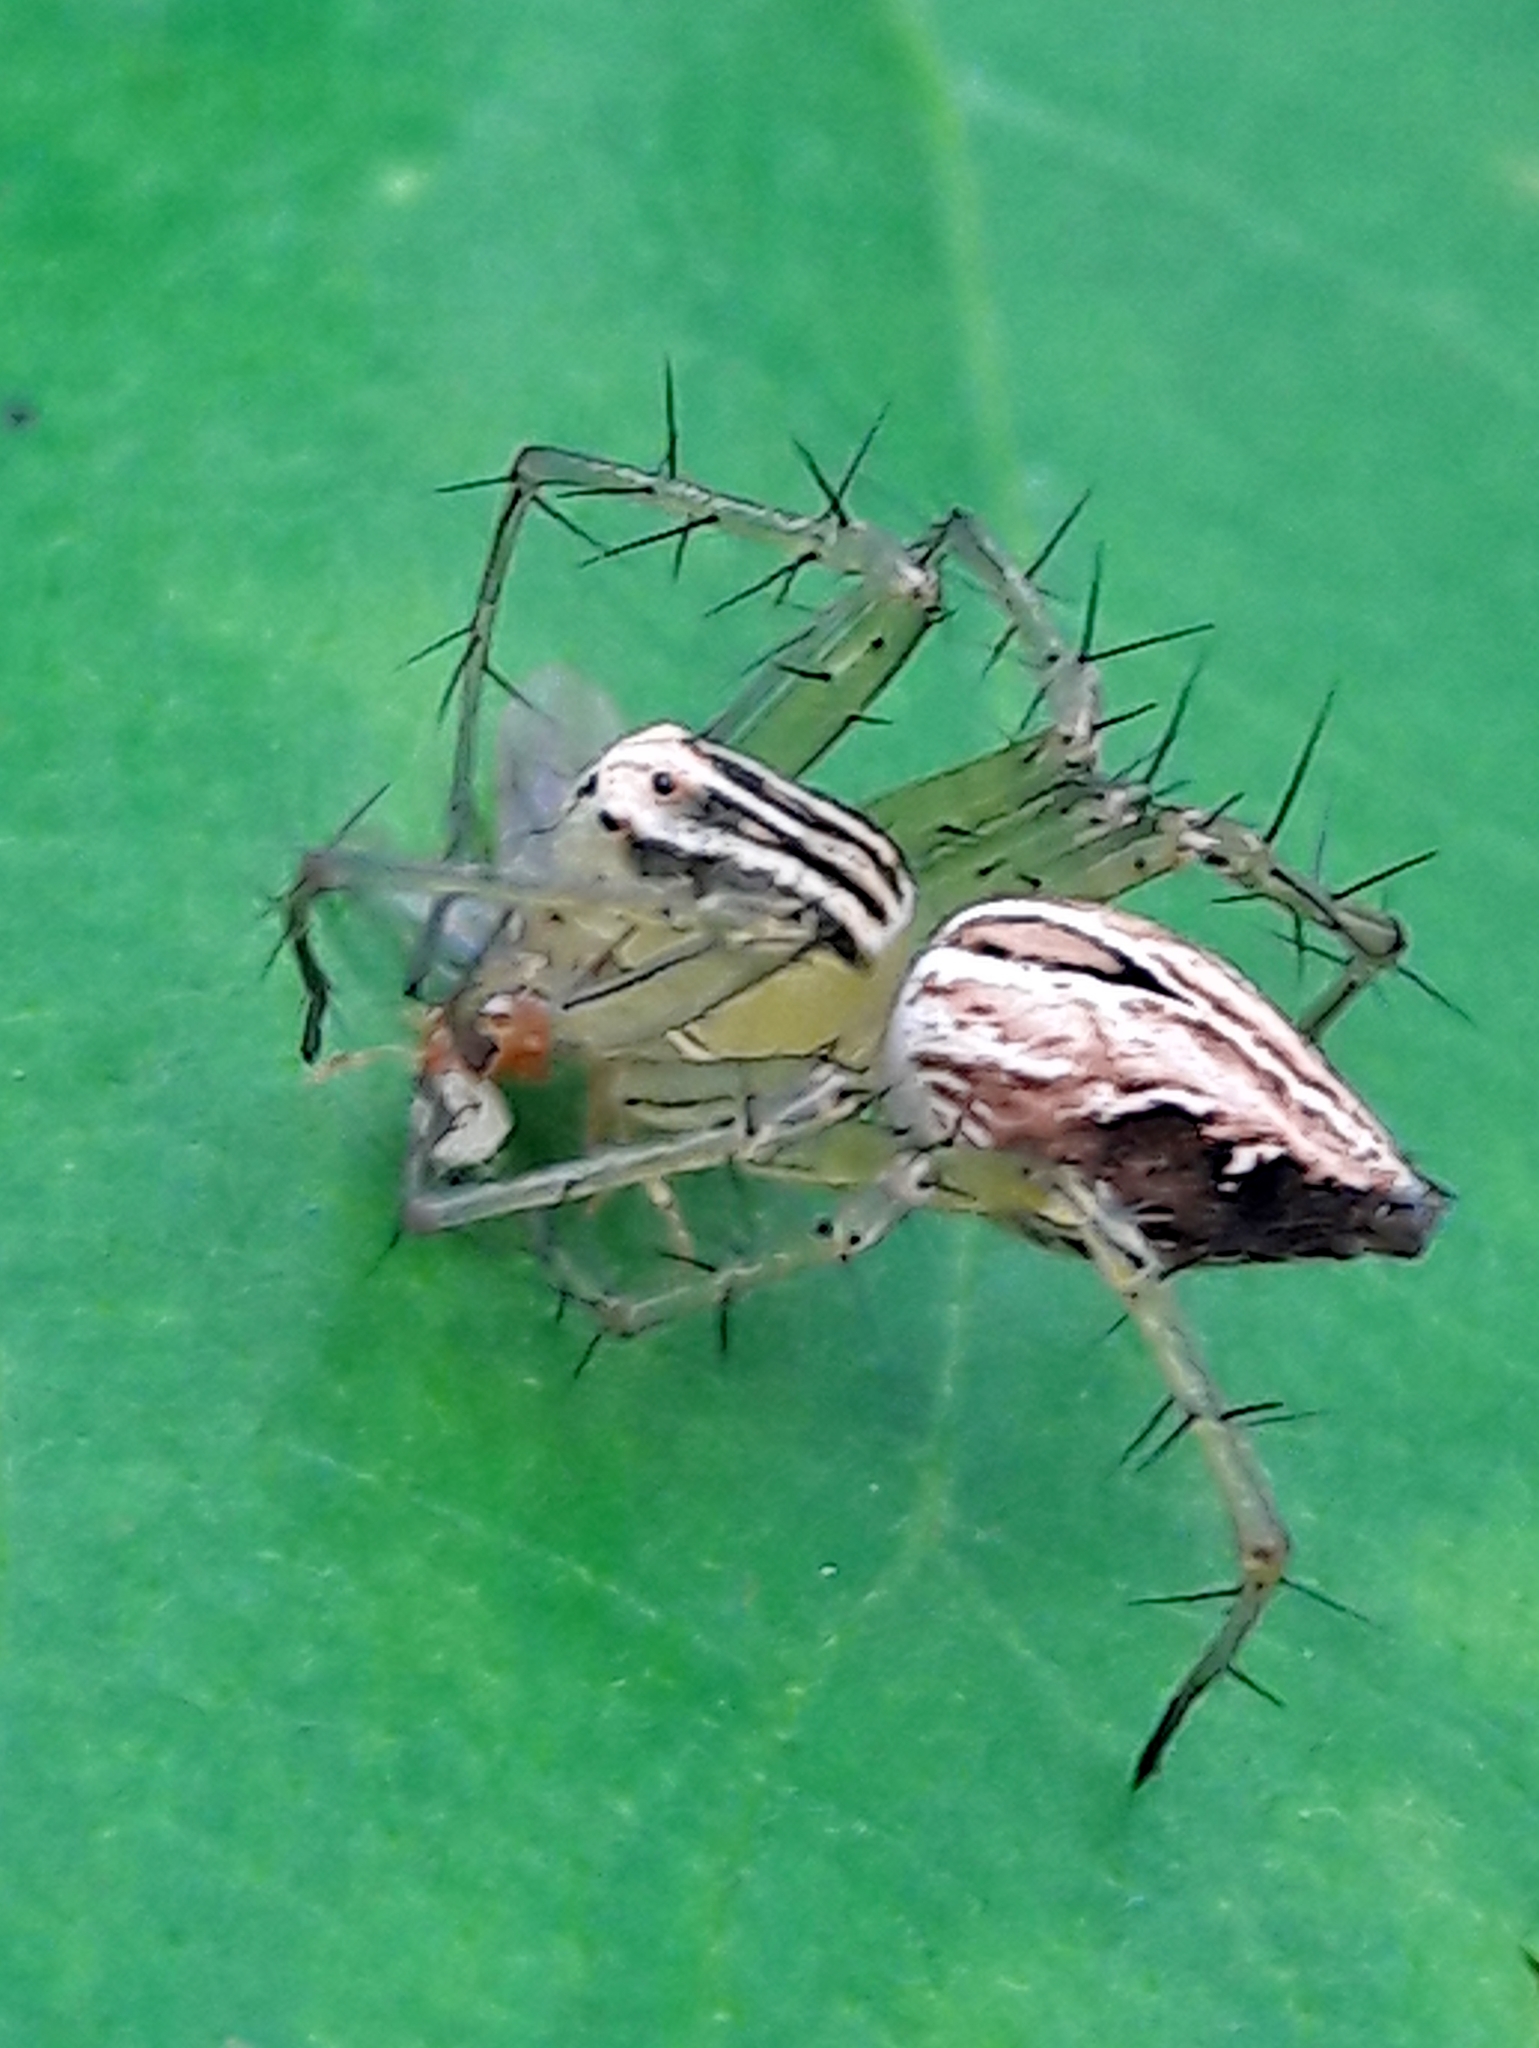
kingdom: Animalia
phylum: Arthropoda
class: Arachnida
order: Araneae
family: Oxyopidae
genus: Oxyopes
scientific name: Oxyopes salticus
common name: Lynx spiders
